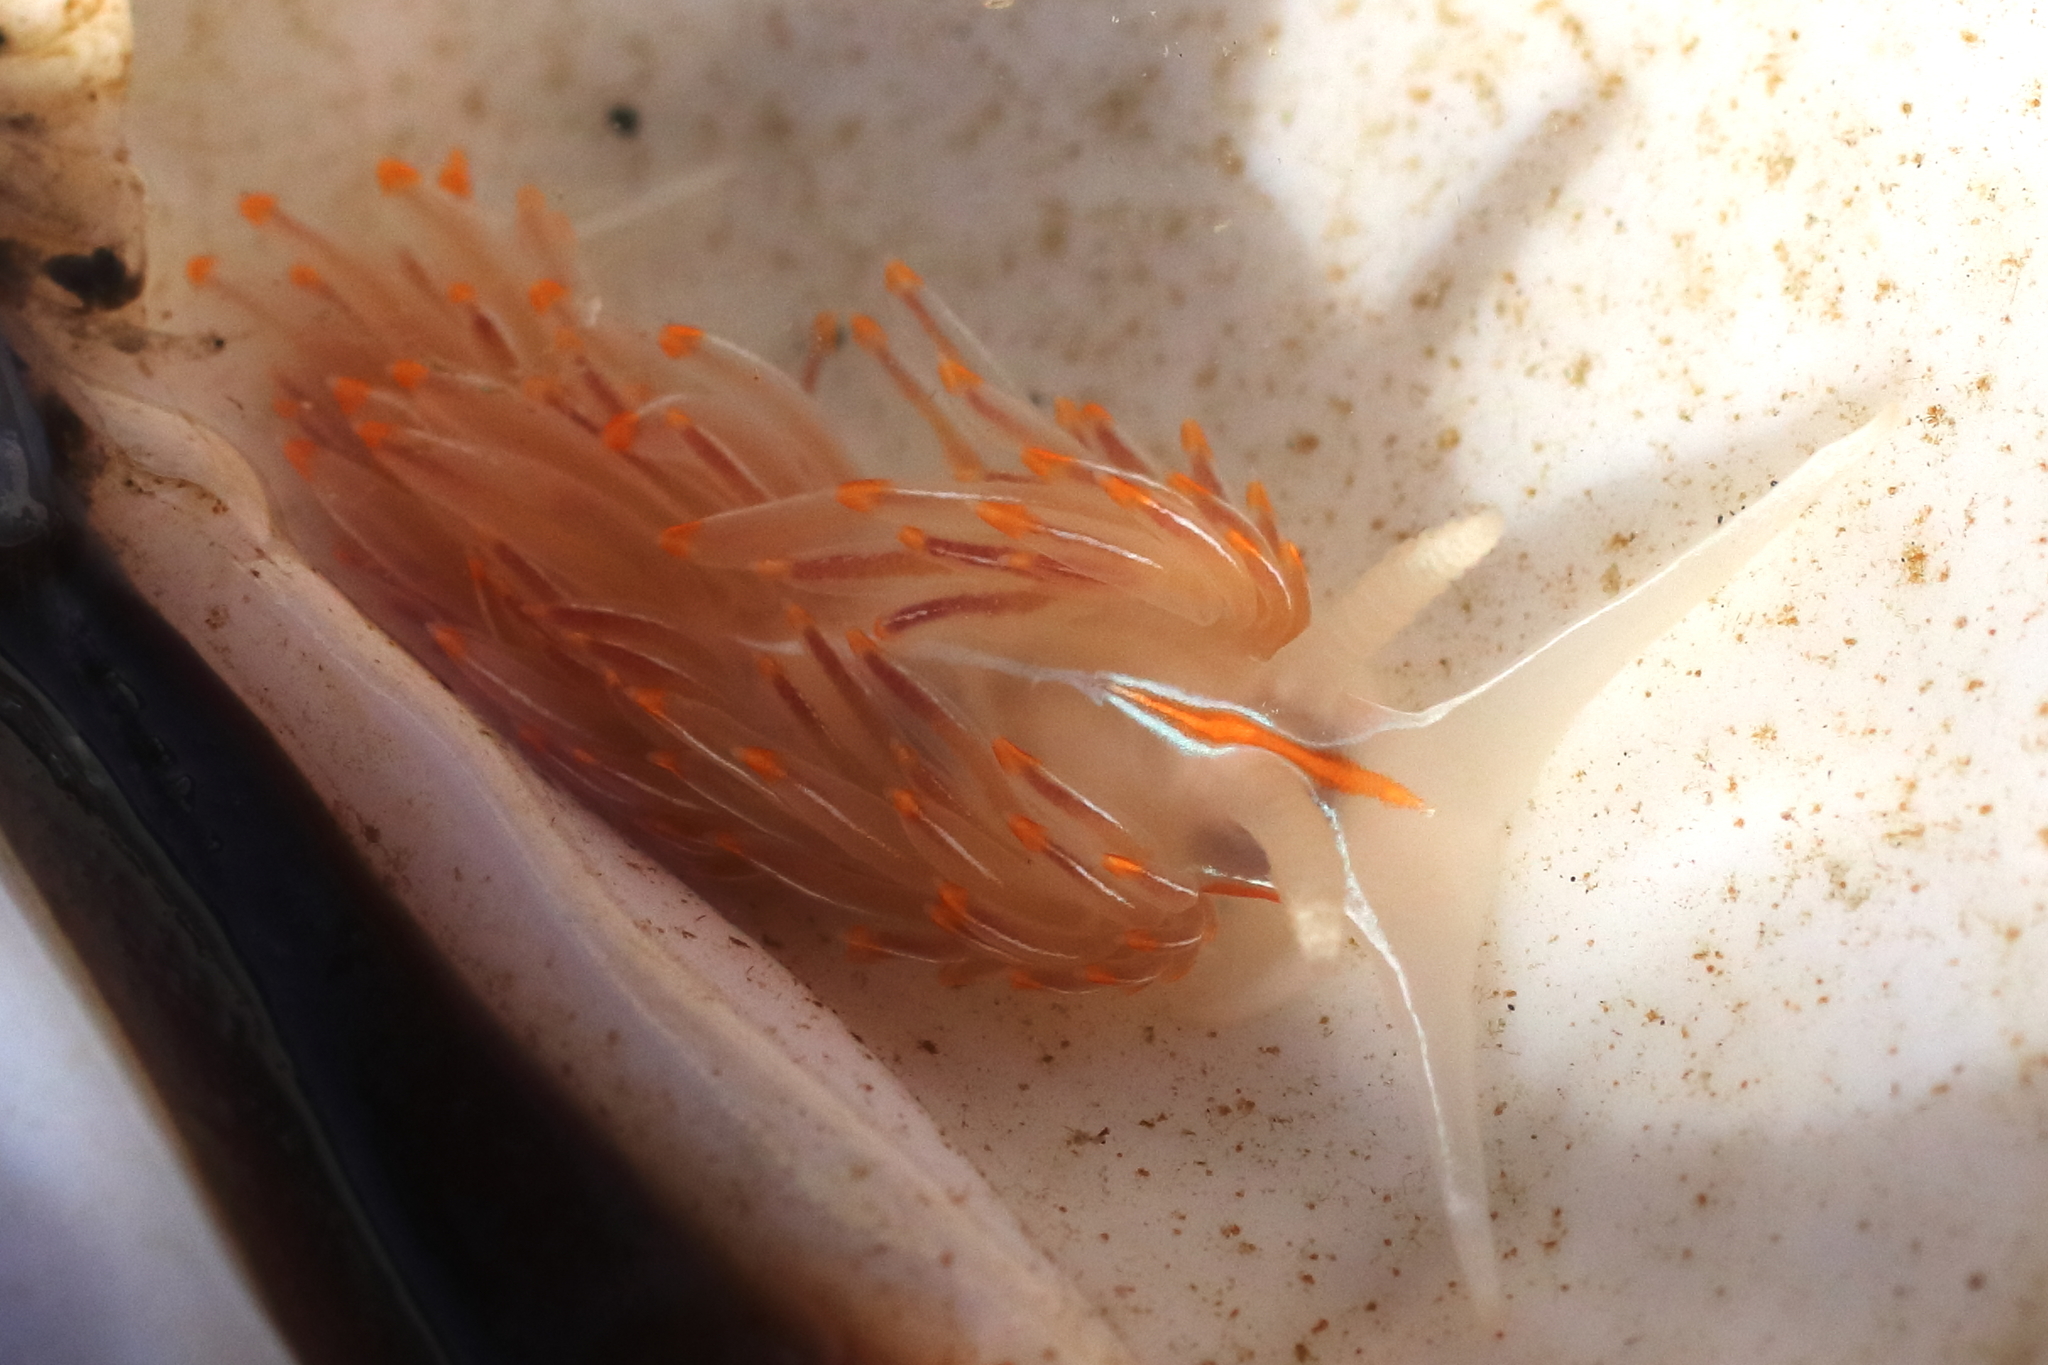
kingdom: Animalia
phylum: Mollusca
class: Gastropoda
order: Nudibranchia
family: Myrrhinidae
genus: Hermissenda
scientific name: Hermissenda crassicornis
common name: Hermissenda
